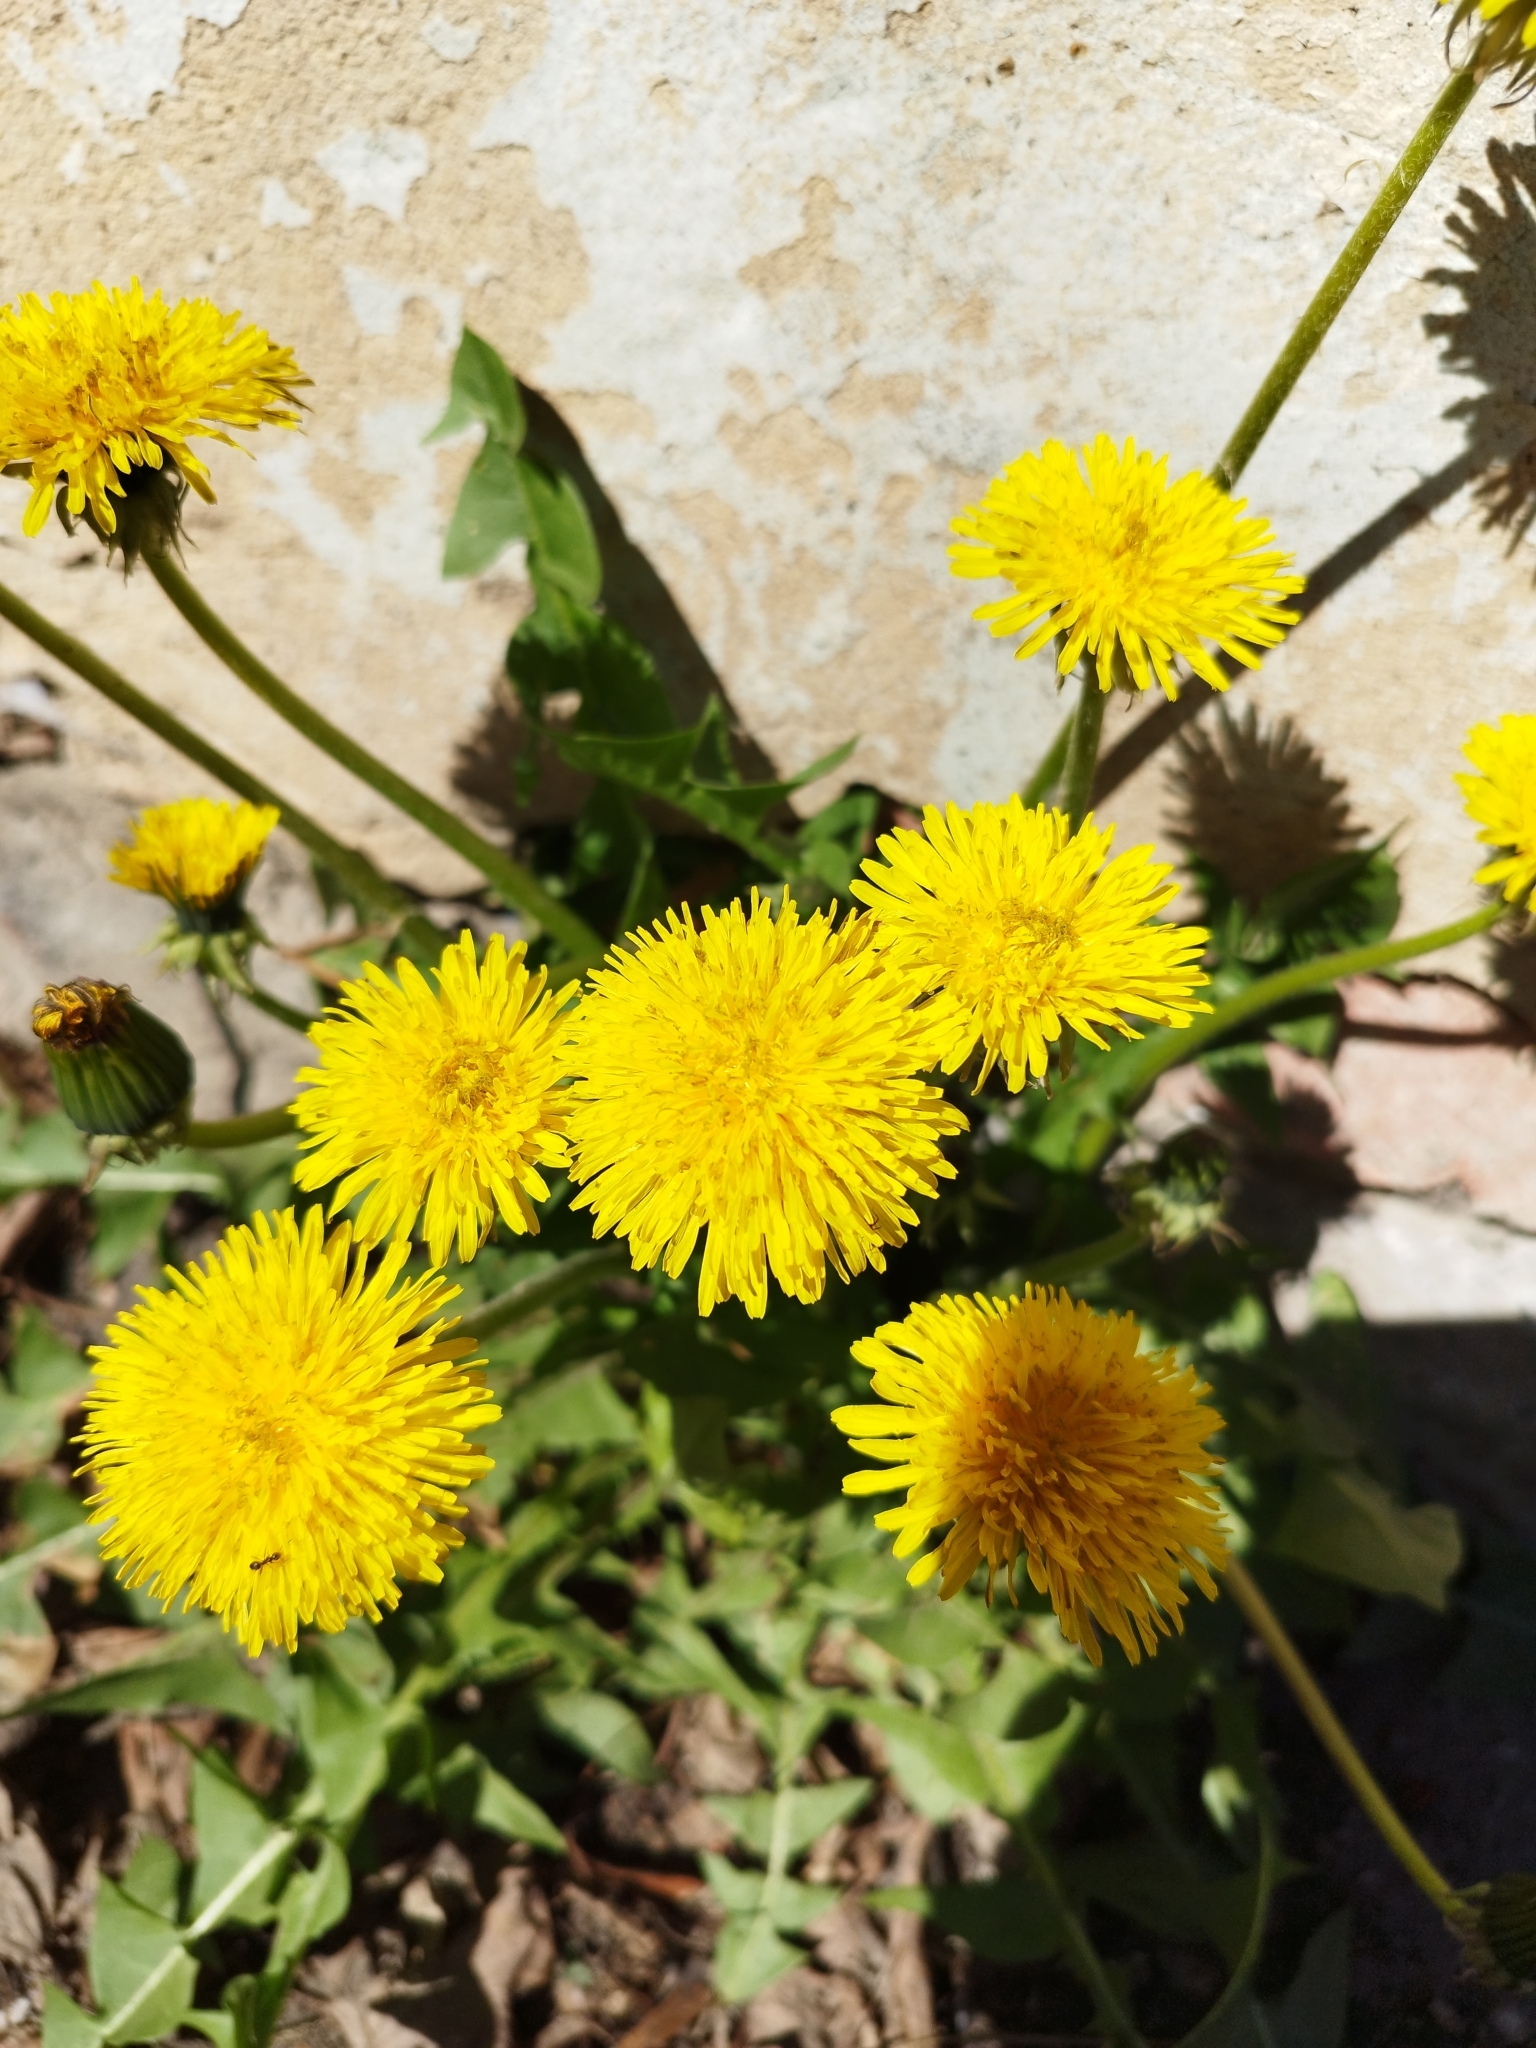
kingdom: Plantae
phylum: Tracheophyta
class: Magnoliopsida
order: Asterales
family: Asteraceae
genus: Taraxacum
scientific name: Taraxacum officinale
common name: Common dandelion
